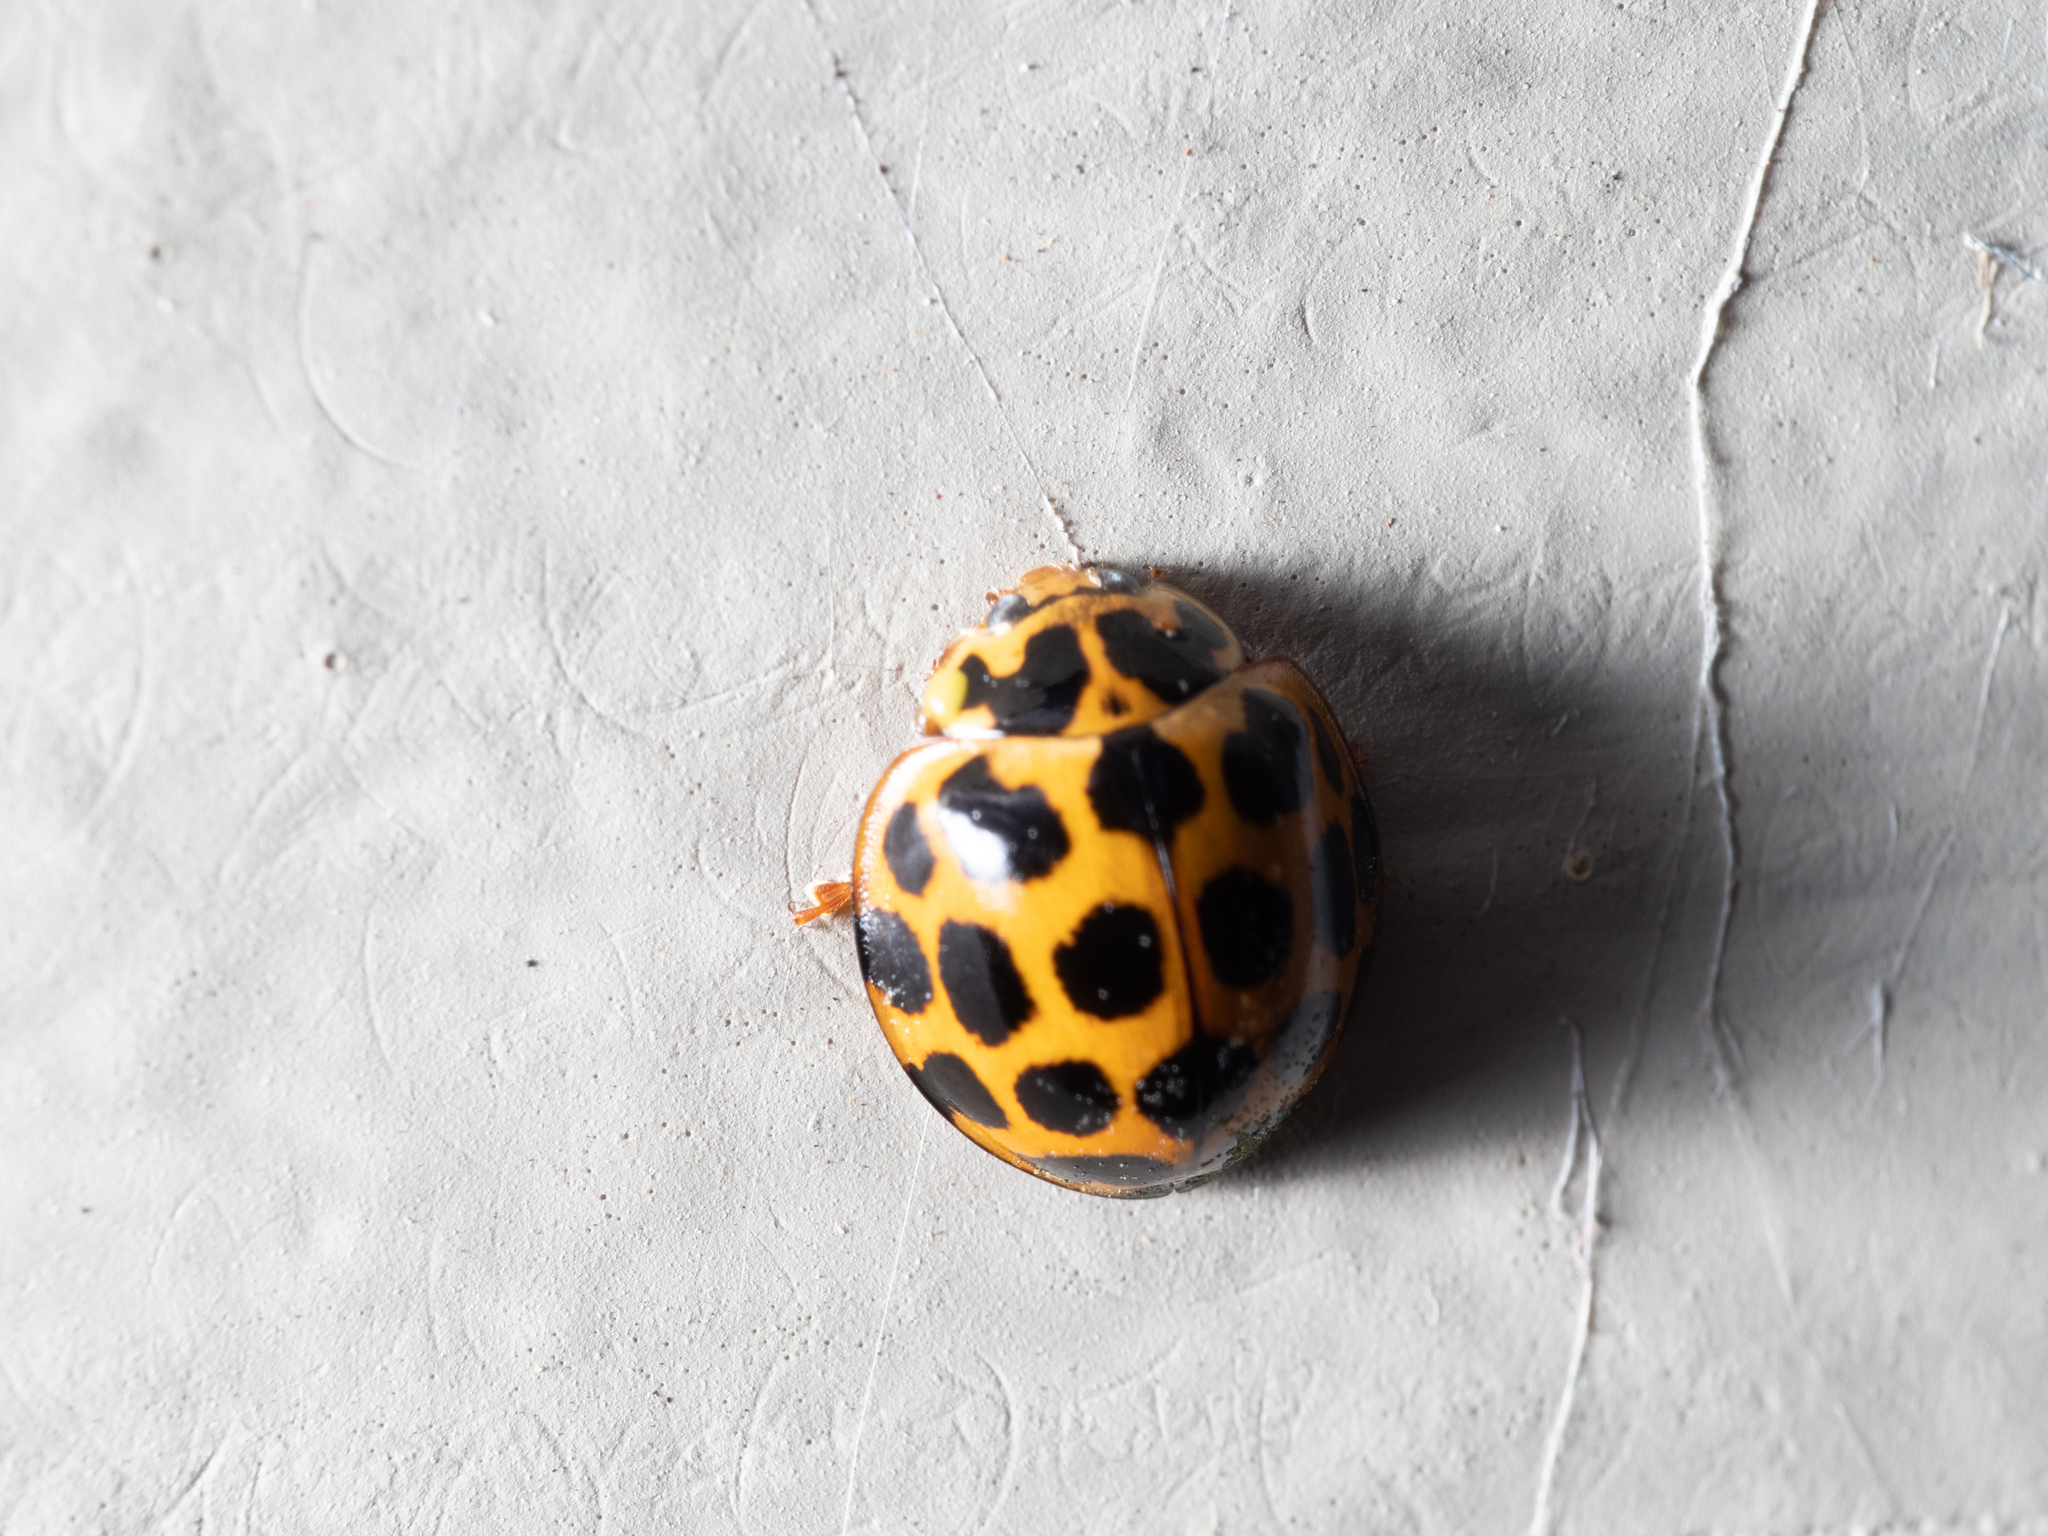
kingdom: Animalia
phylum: Arthropoda
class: Insecta
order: Coleoptera
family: Coccinellidae
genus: Harmonia
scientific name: Harmonia conformis
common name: Common spotted ladybird beetle
